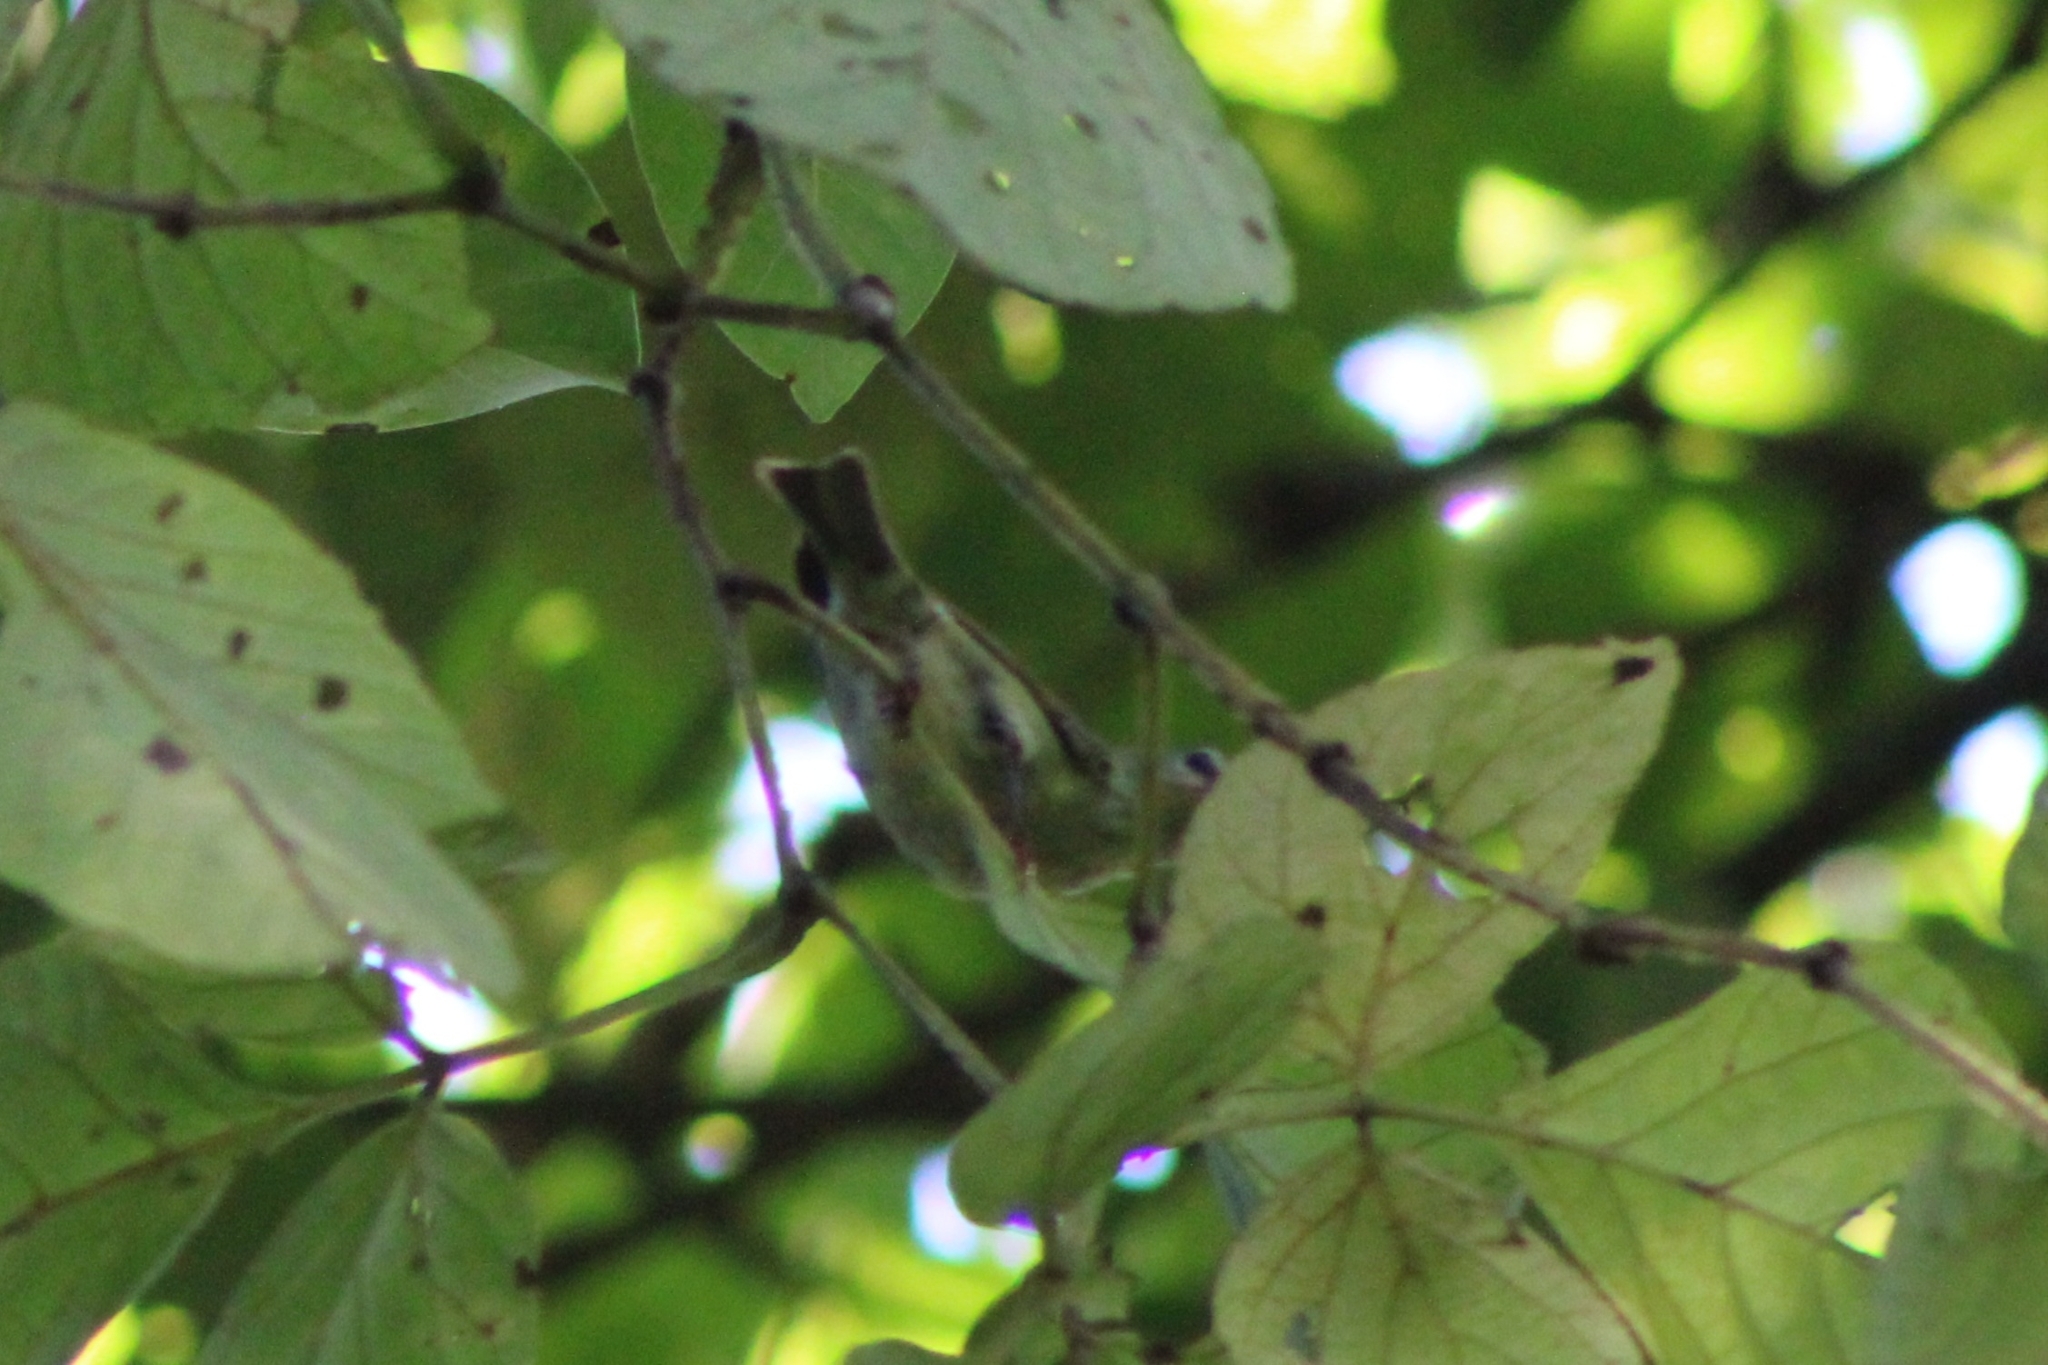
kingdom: Animalia
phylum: Chordata
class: Aves
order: Passeriformes
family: Parulidae
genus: Leiothlypis
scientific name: Leiothlypis peregrina
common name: Tennessee warbler
